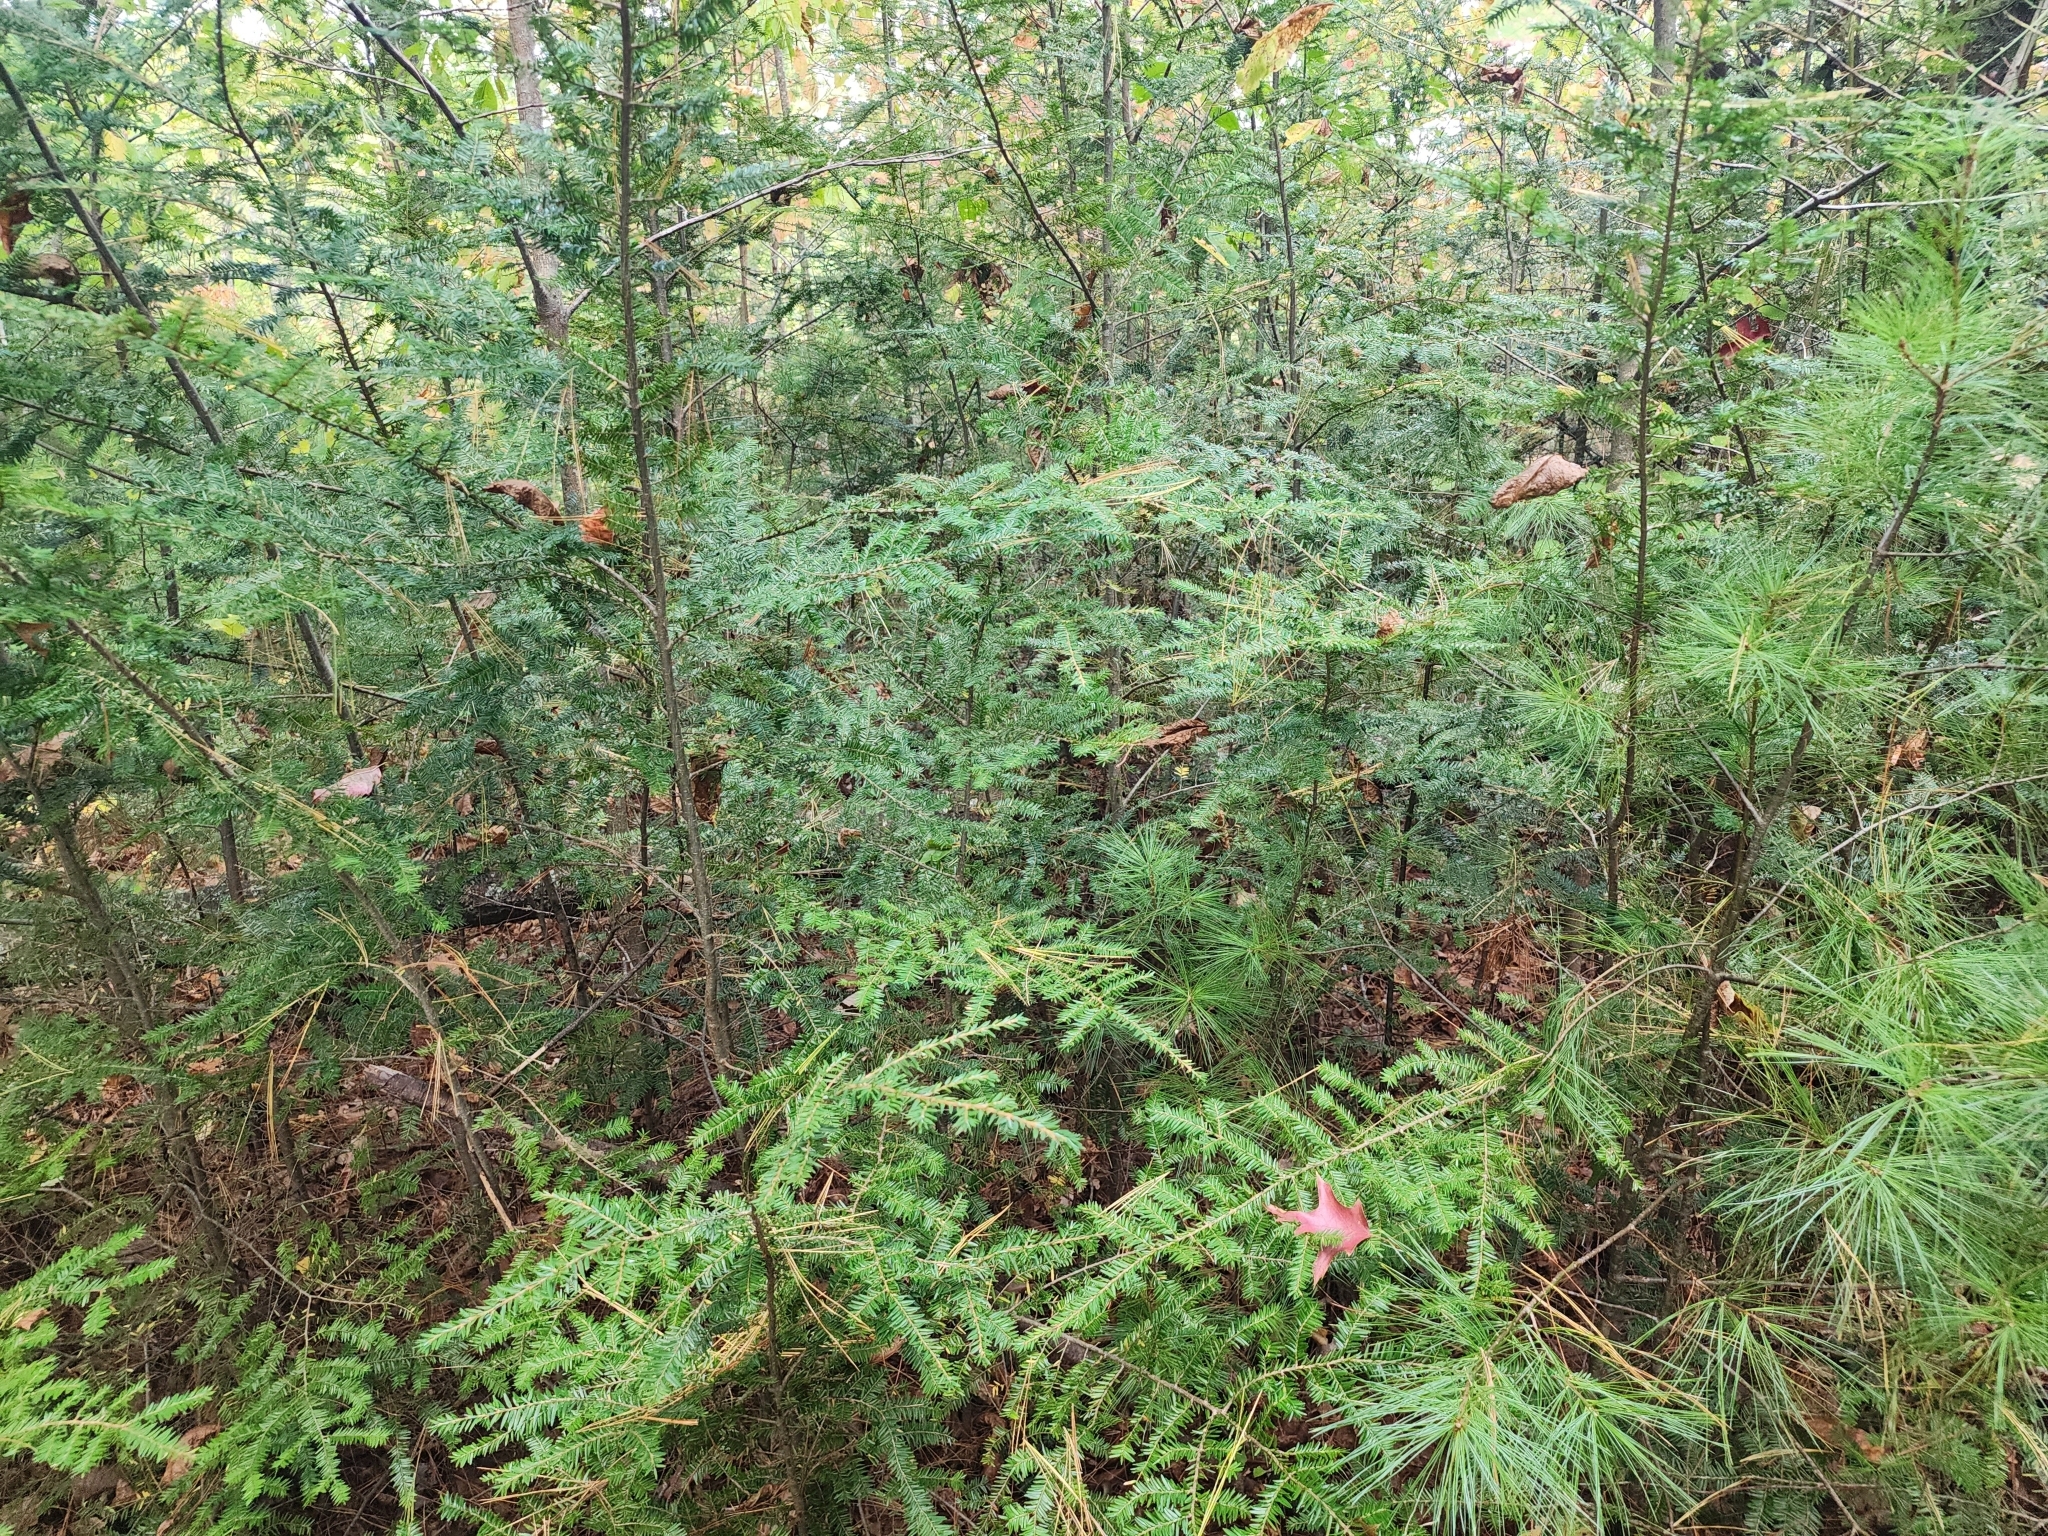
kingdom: Plantae
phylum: Tracheophyta
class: Pinopsida
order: Pinales
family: Pinaceae
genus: Tsuga
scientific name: Tsuga canadensis
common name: Eastern hemlock
